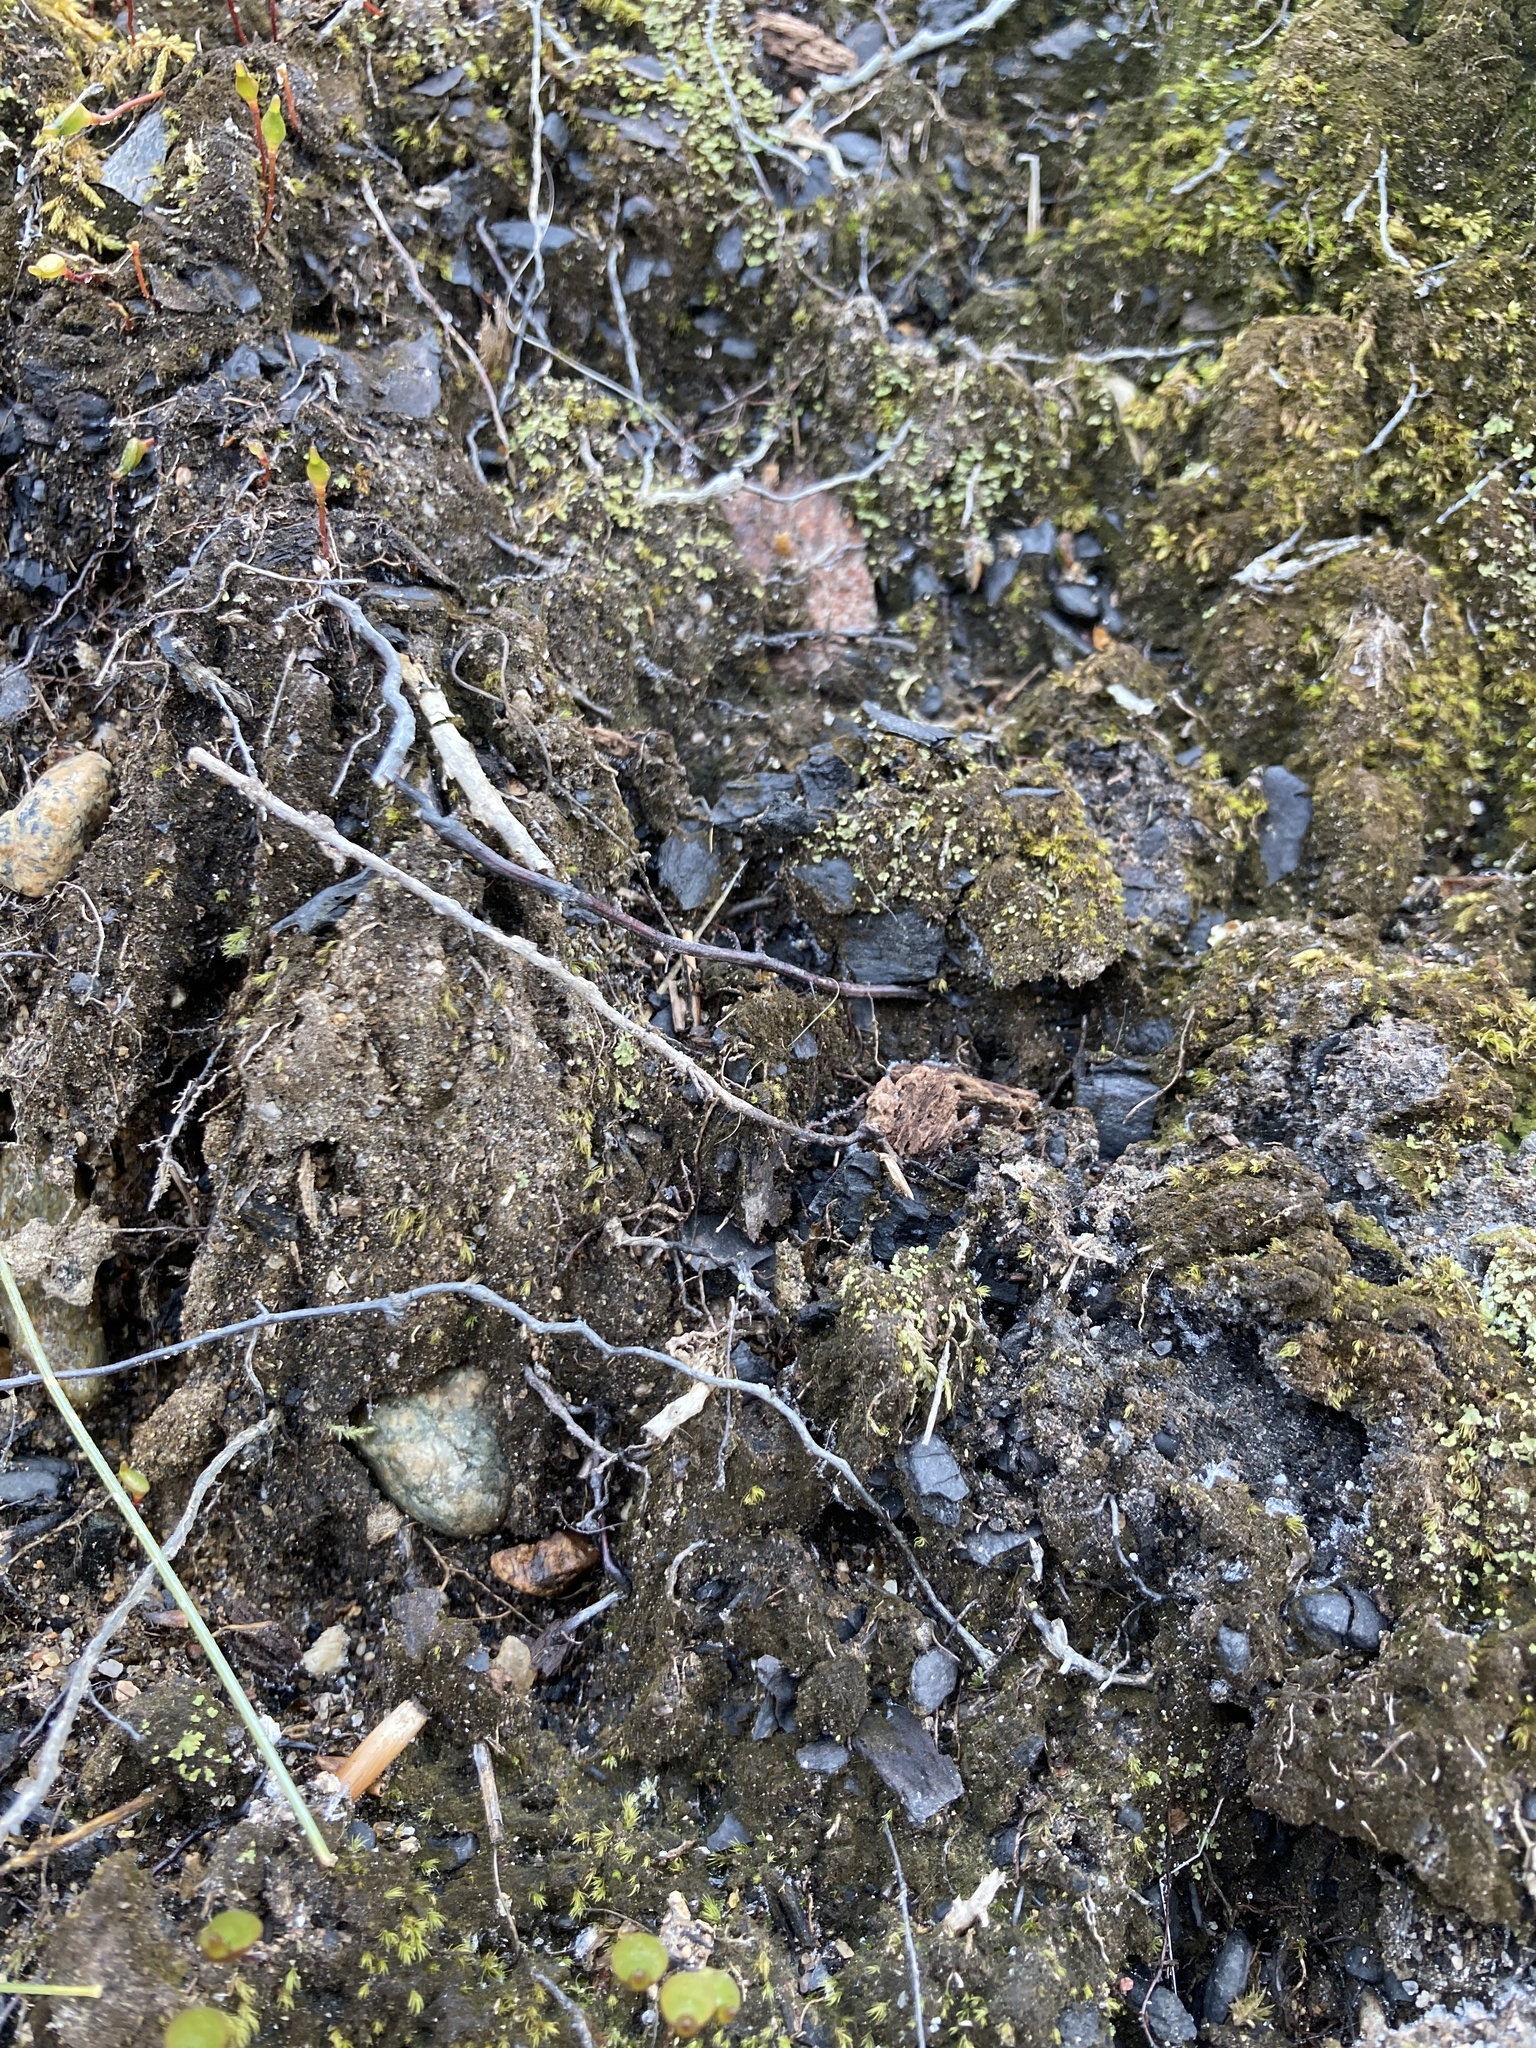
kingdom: Plantae
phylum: Bryophyta
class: Bryopsida
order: Buxbaumiales
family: Buxbaumiaceae
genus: Buxbaumia
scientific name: Buxbaumia aphylla
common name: Brown shield-moss
